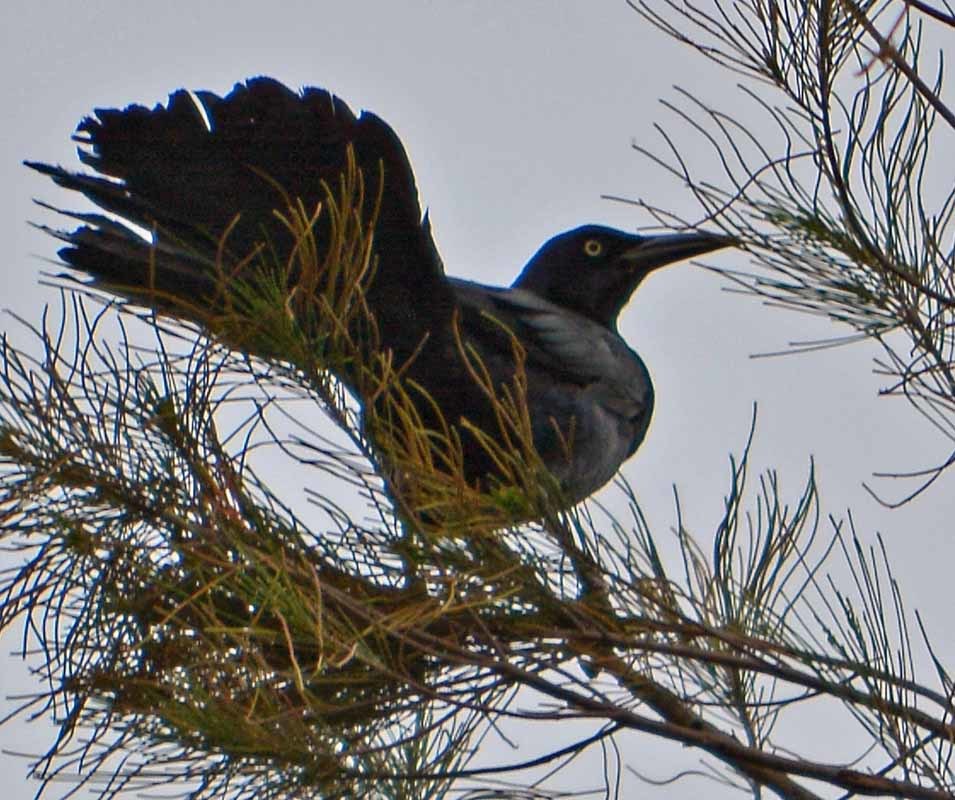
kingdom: Animalia
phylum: Chordata
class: Aves
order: Passeriformes
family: Icteridae
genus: Quiscalus
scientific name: Quiscalus mexicanus
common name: Great-tailed grackle
